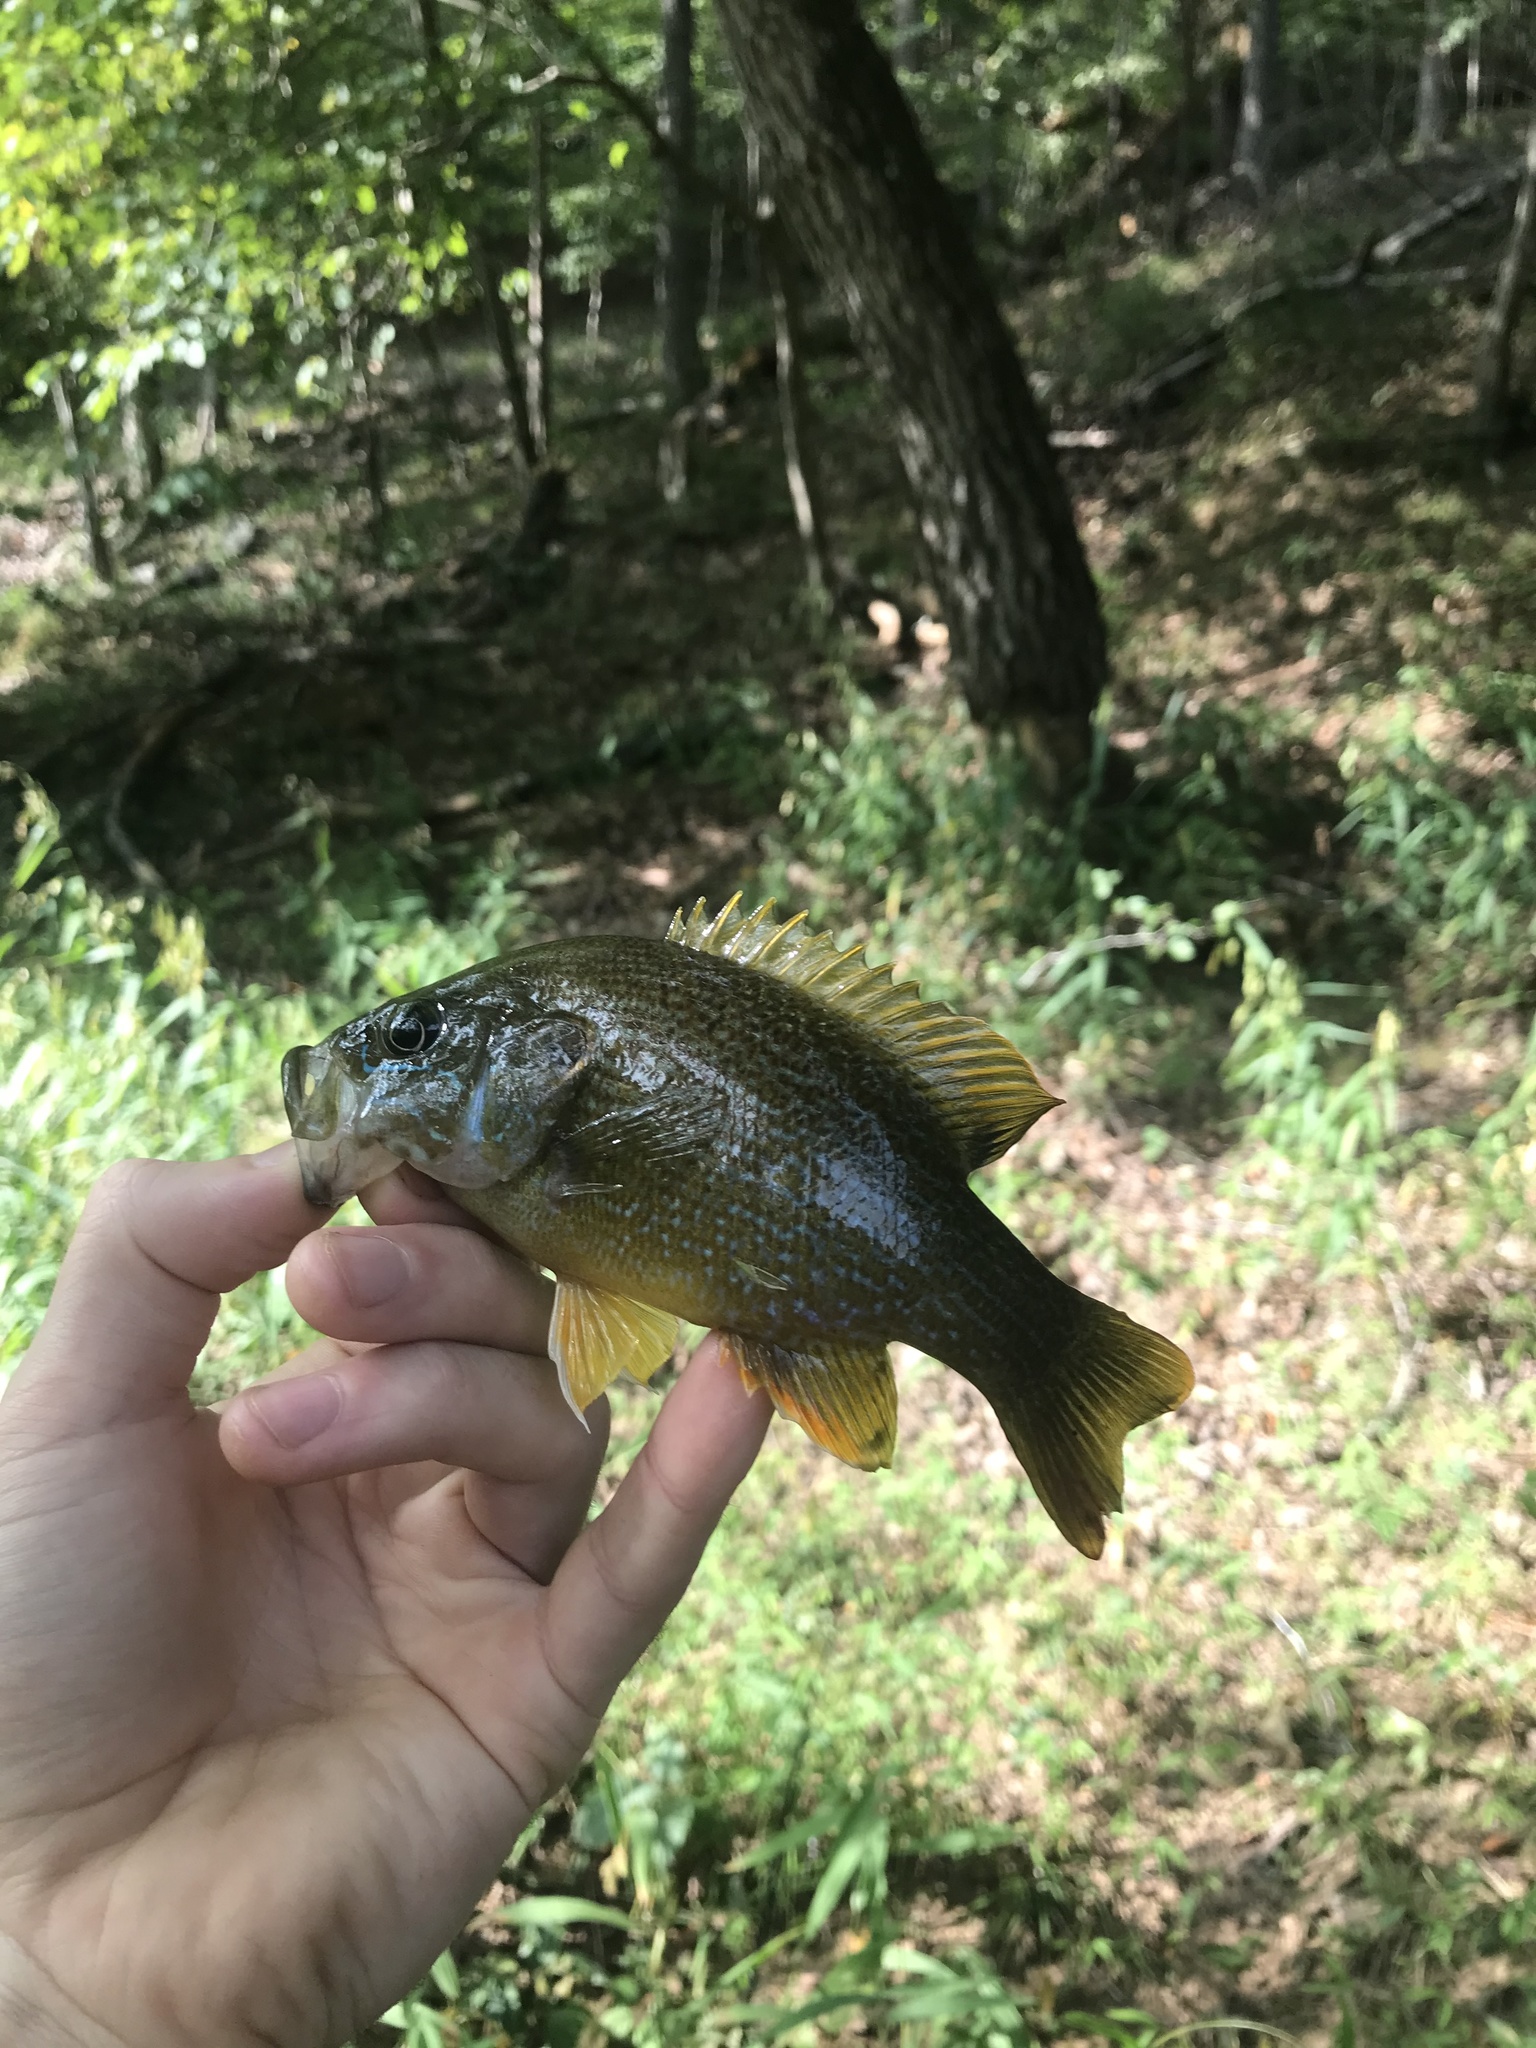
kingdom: Animalia
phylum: Chordata
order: Perciformes
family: Centrarchidae
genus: Lepomis
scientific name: Lepomis cyanellus
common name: Green sunfish
